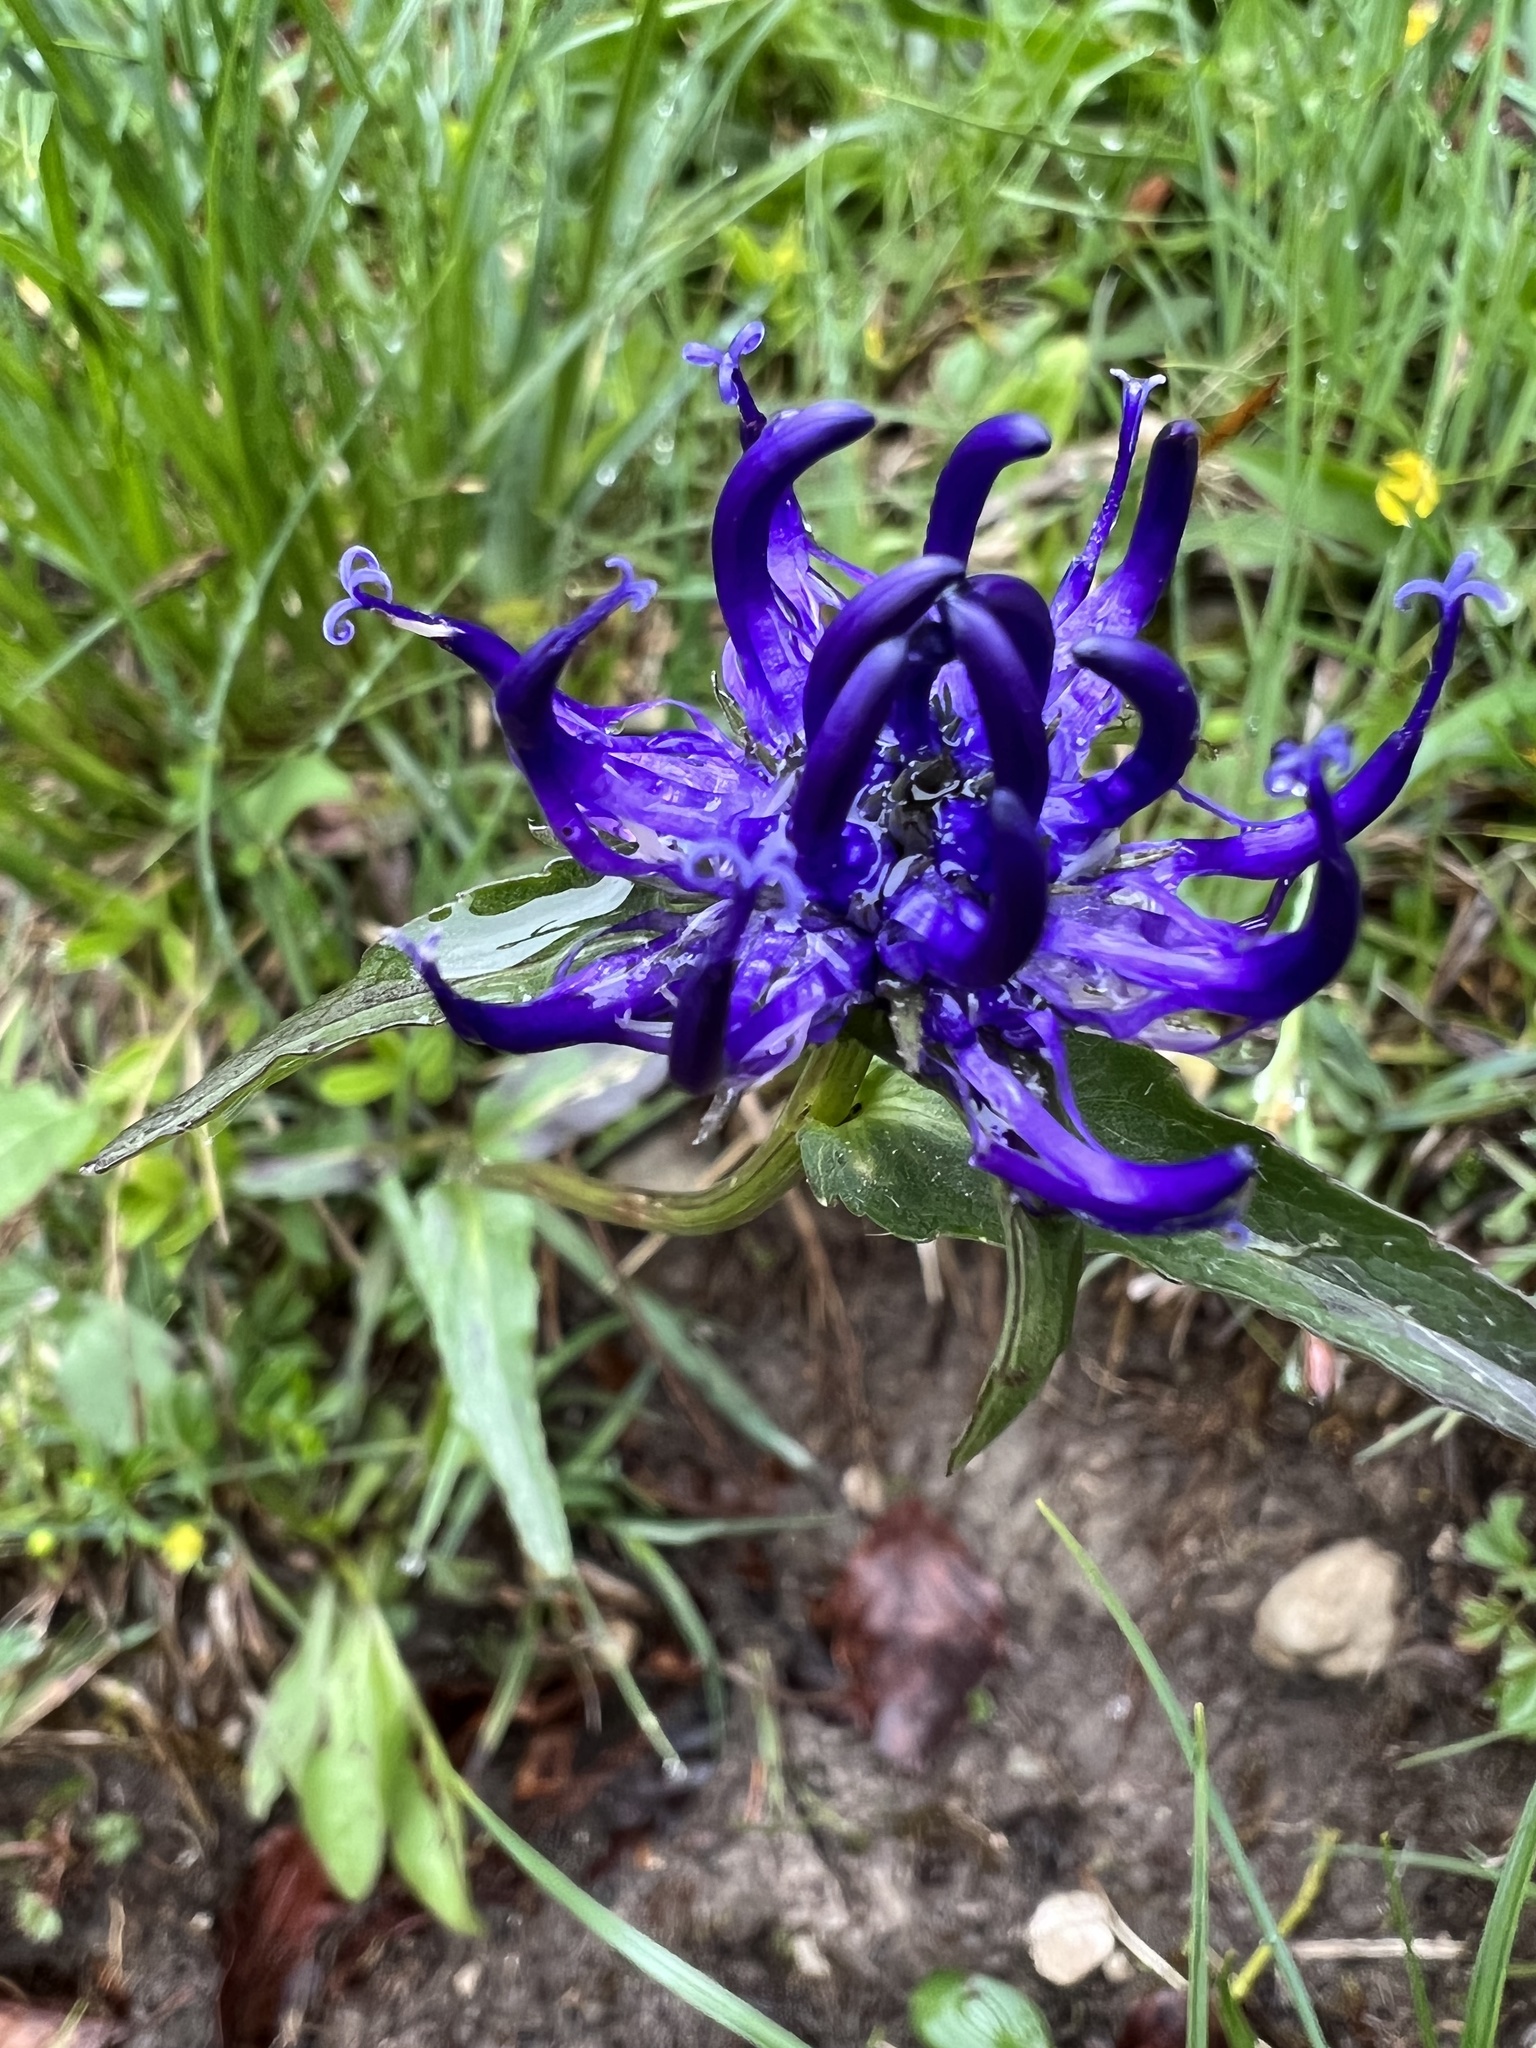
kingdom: Plantae
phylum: Tracheophyta
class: Magnoliopsida
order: Asterales
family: Campanulaceae
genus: Phyteuma
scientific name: Phyteuma orbiculare
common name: Round-headed rampion
